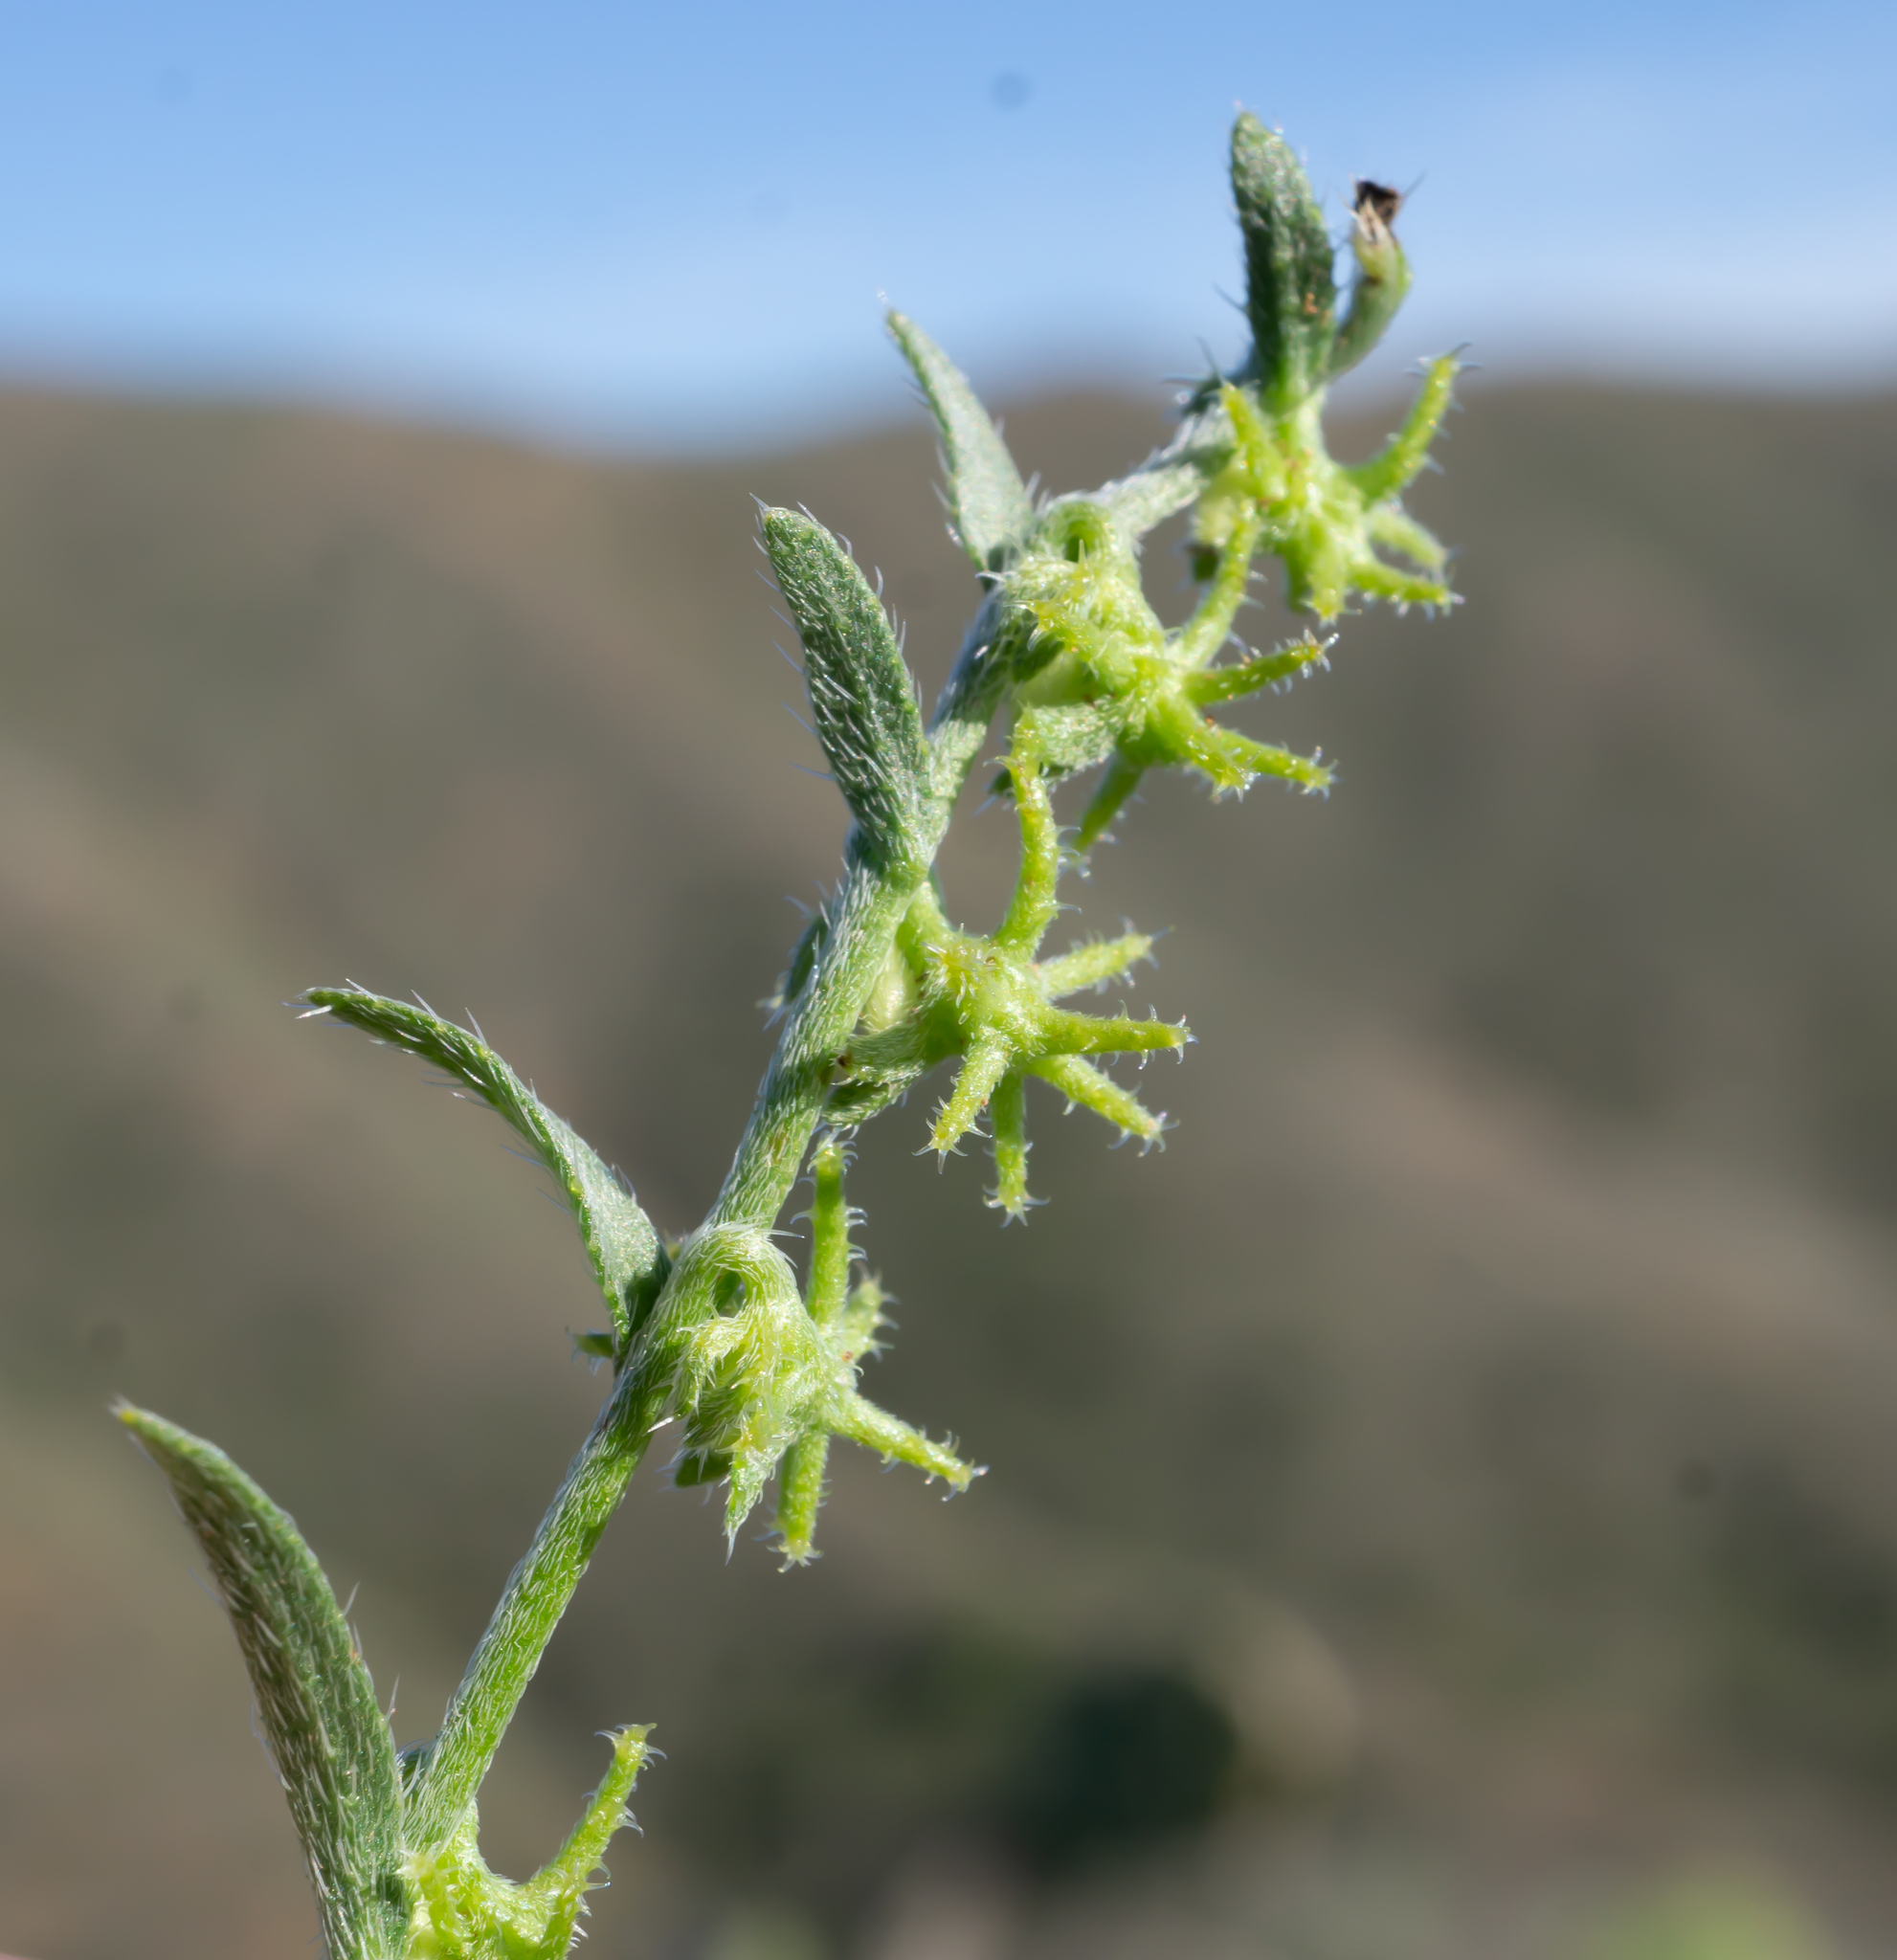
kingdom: Plantae
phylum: Tracheophyta
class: Magnoliopsida
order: Boraginales
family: Boraginaceae
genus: Harpagonella
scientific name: Harpagonella palmeri
